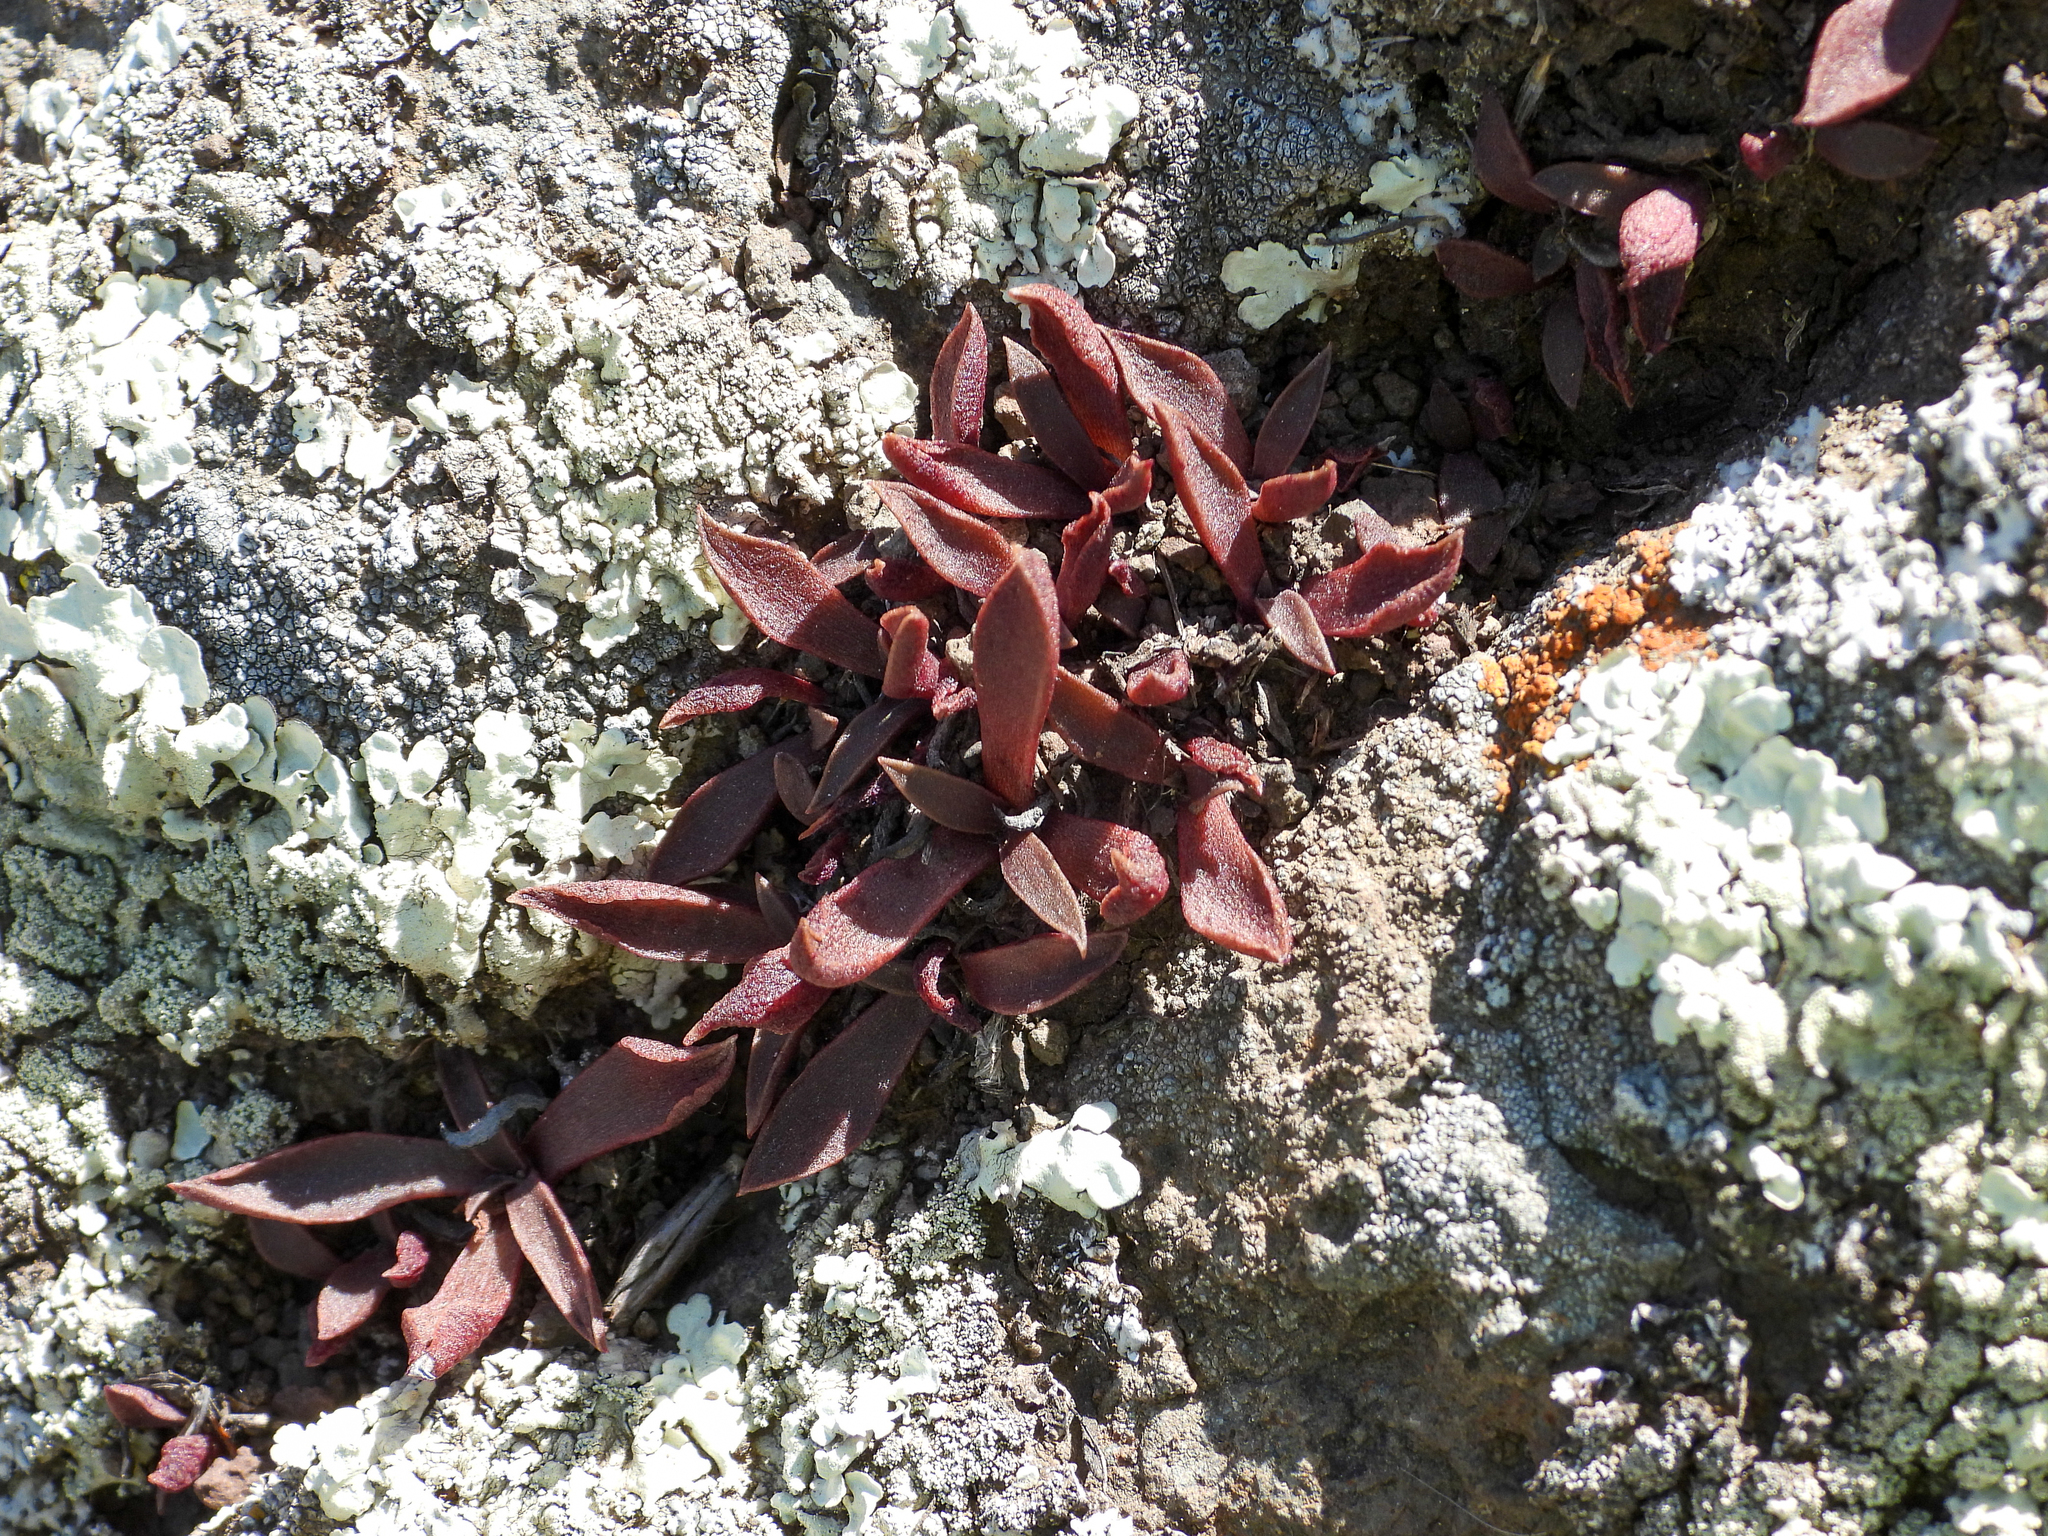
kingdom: Plantae
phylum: Tracheophyta
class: Magnoliopsida
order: Saxifragales
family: Crassulaceae
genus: Dudleya
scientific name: Dudleya parva
